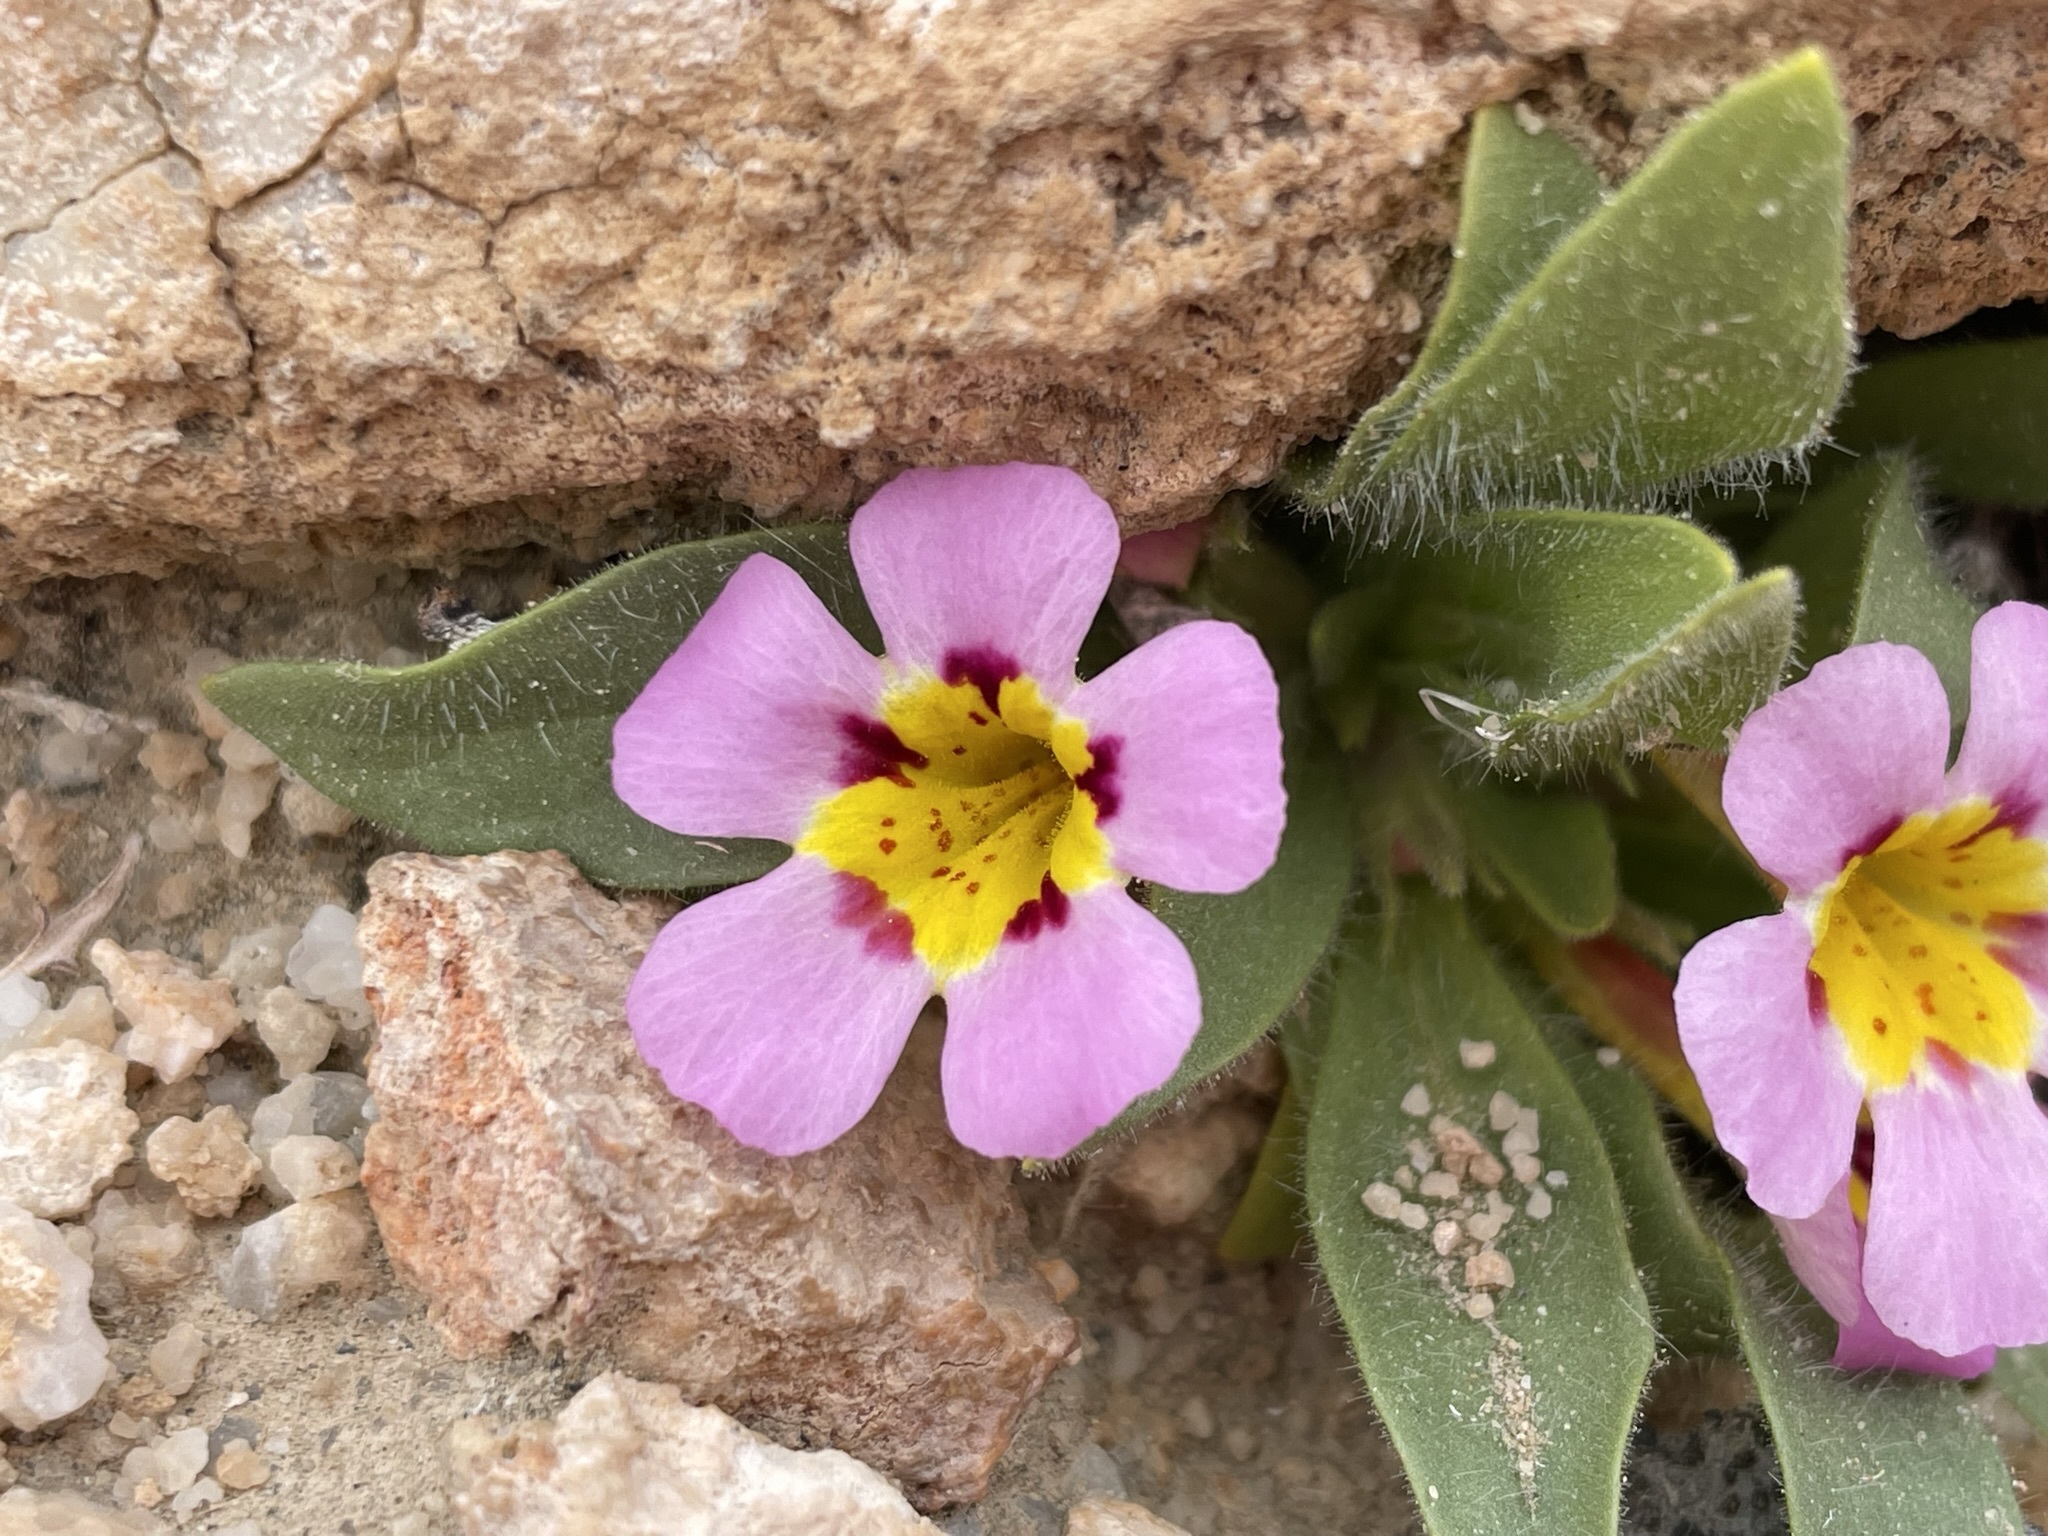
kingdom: Plantae
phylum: Tracheophyta
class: Magnoliopsida
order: Lamiales
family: Phrymaceae
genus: Diplacus
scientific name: Diplacus rupicola
